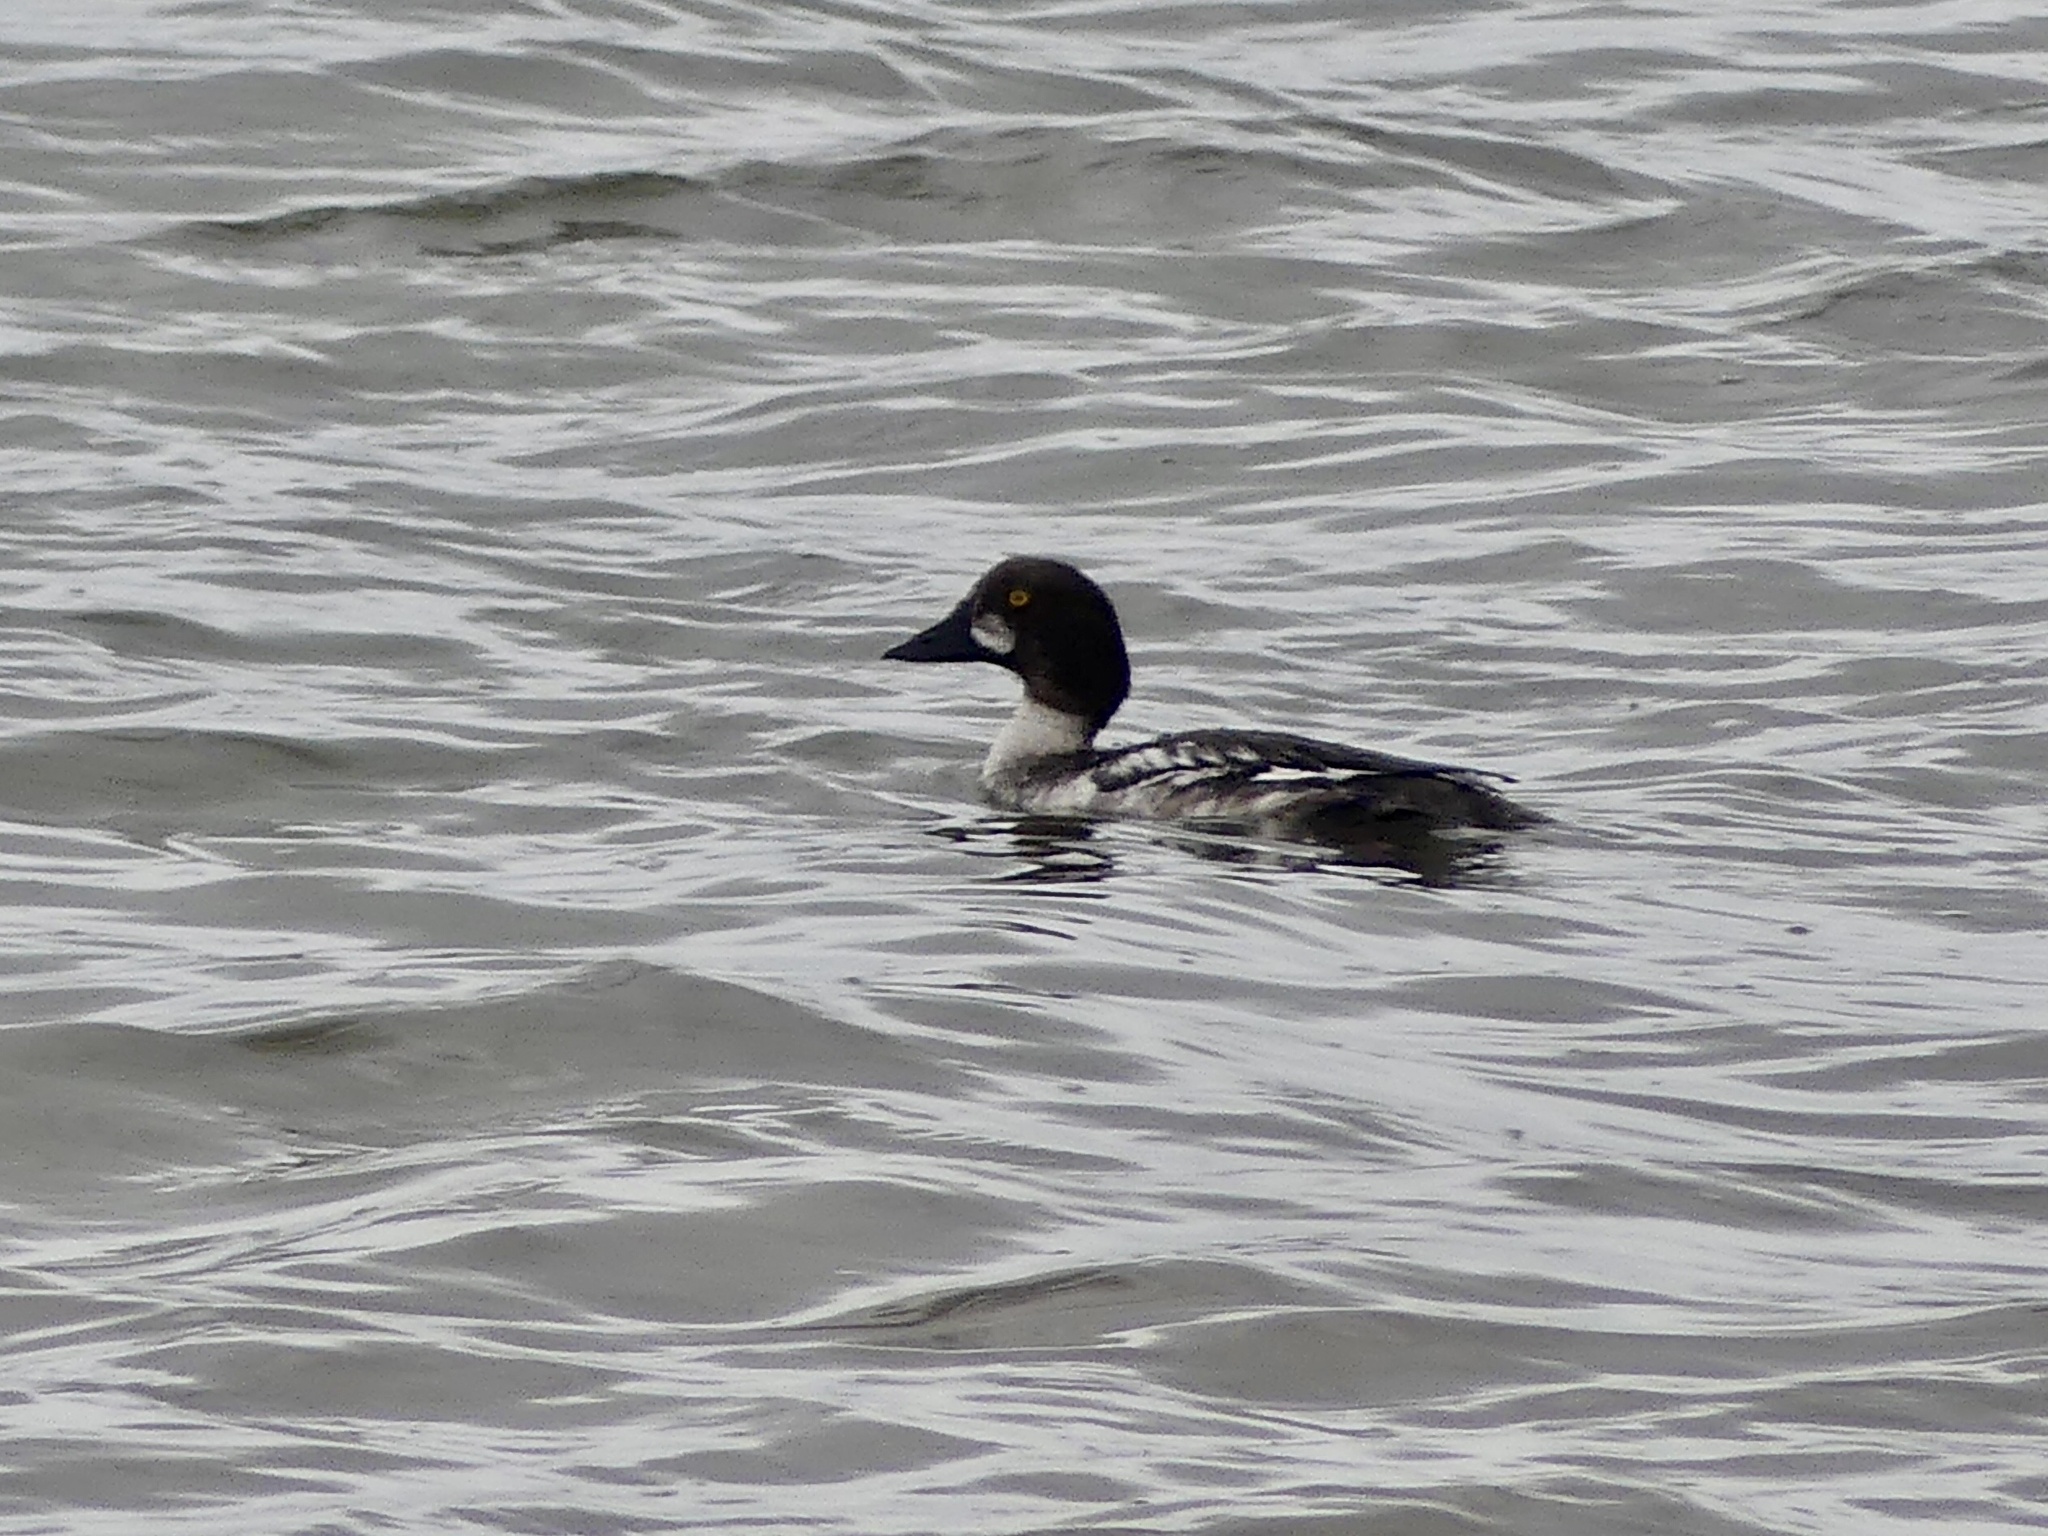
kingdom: Animalia
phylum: Chordata
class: Aves
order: Anseriformes
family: Anatidae
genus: Bucephala
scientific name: Bucephala clangula
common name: Common goldeneye
